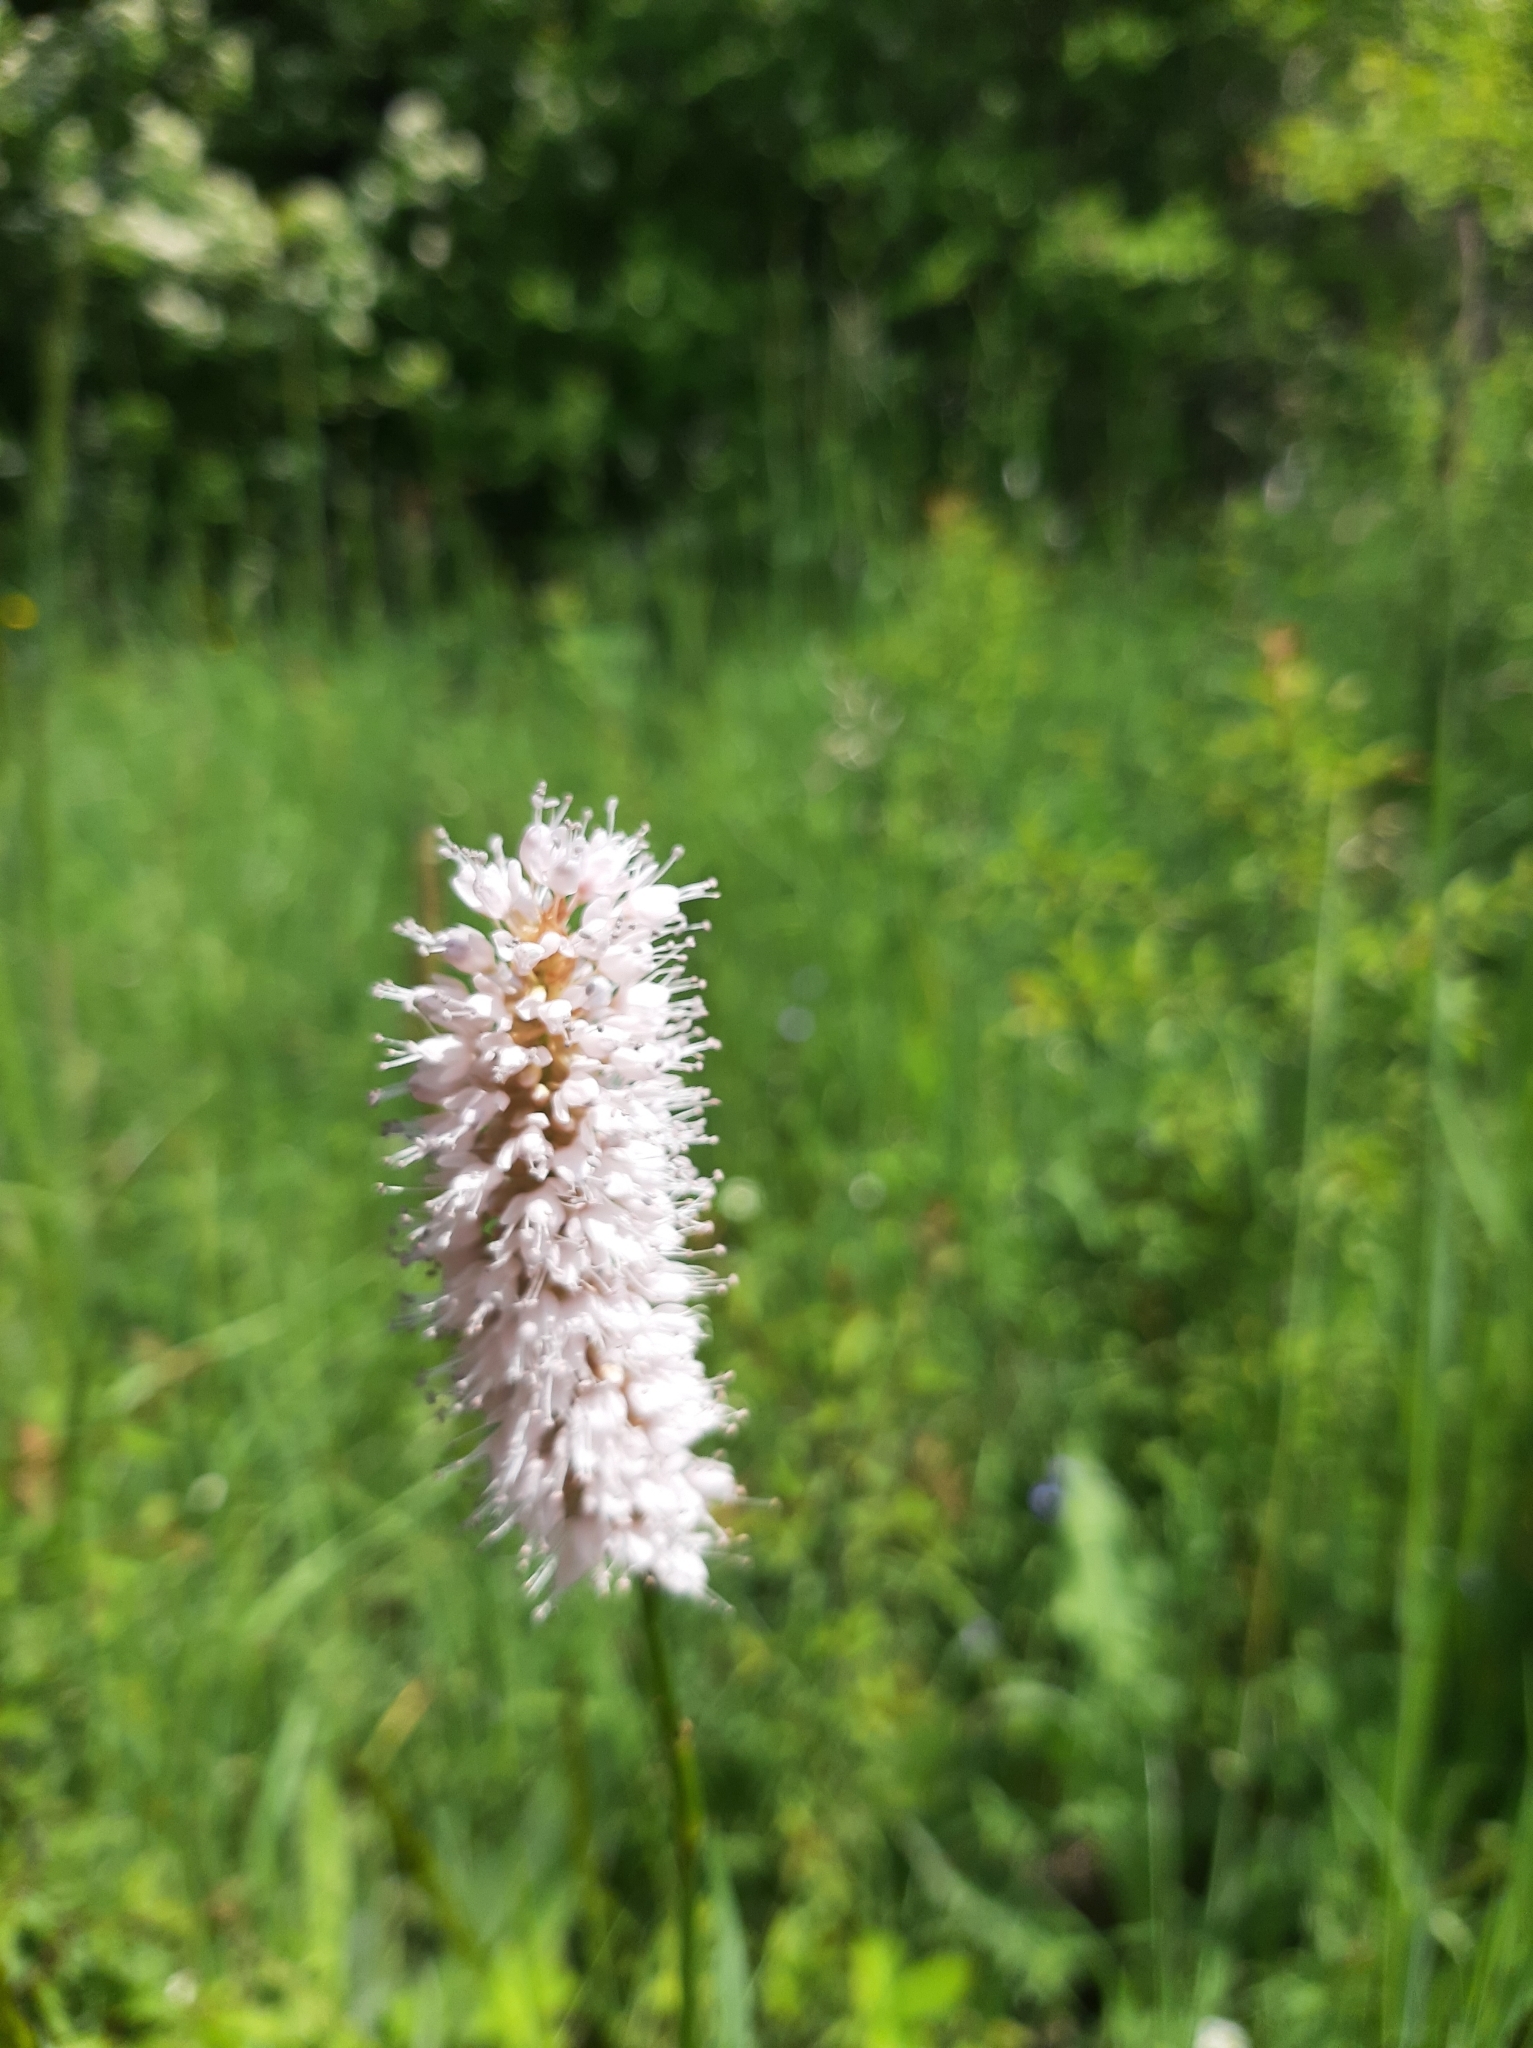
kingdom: Plantae
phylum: Tracheophyta
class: Magnoliopsida
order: Caryophyllales
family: Polygonaceae
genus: Bistorta
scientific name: Bistorta officinalis
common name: Common bistort
